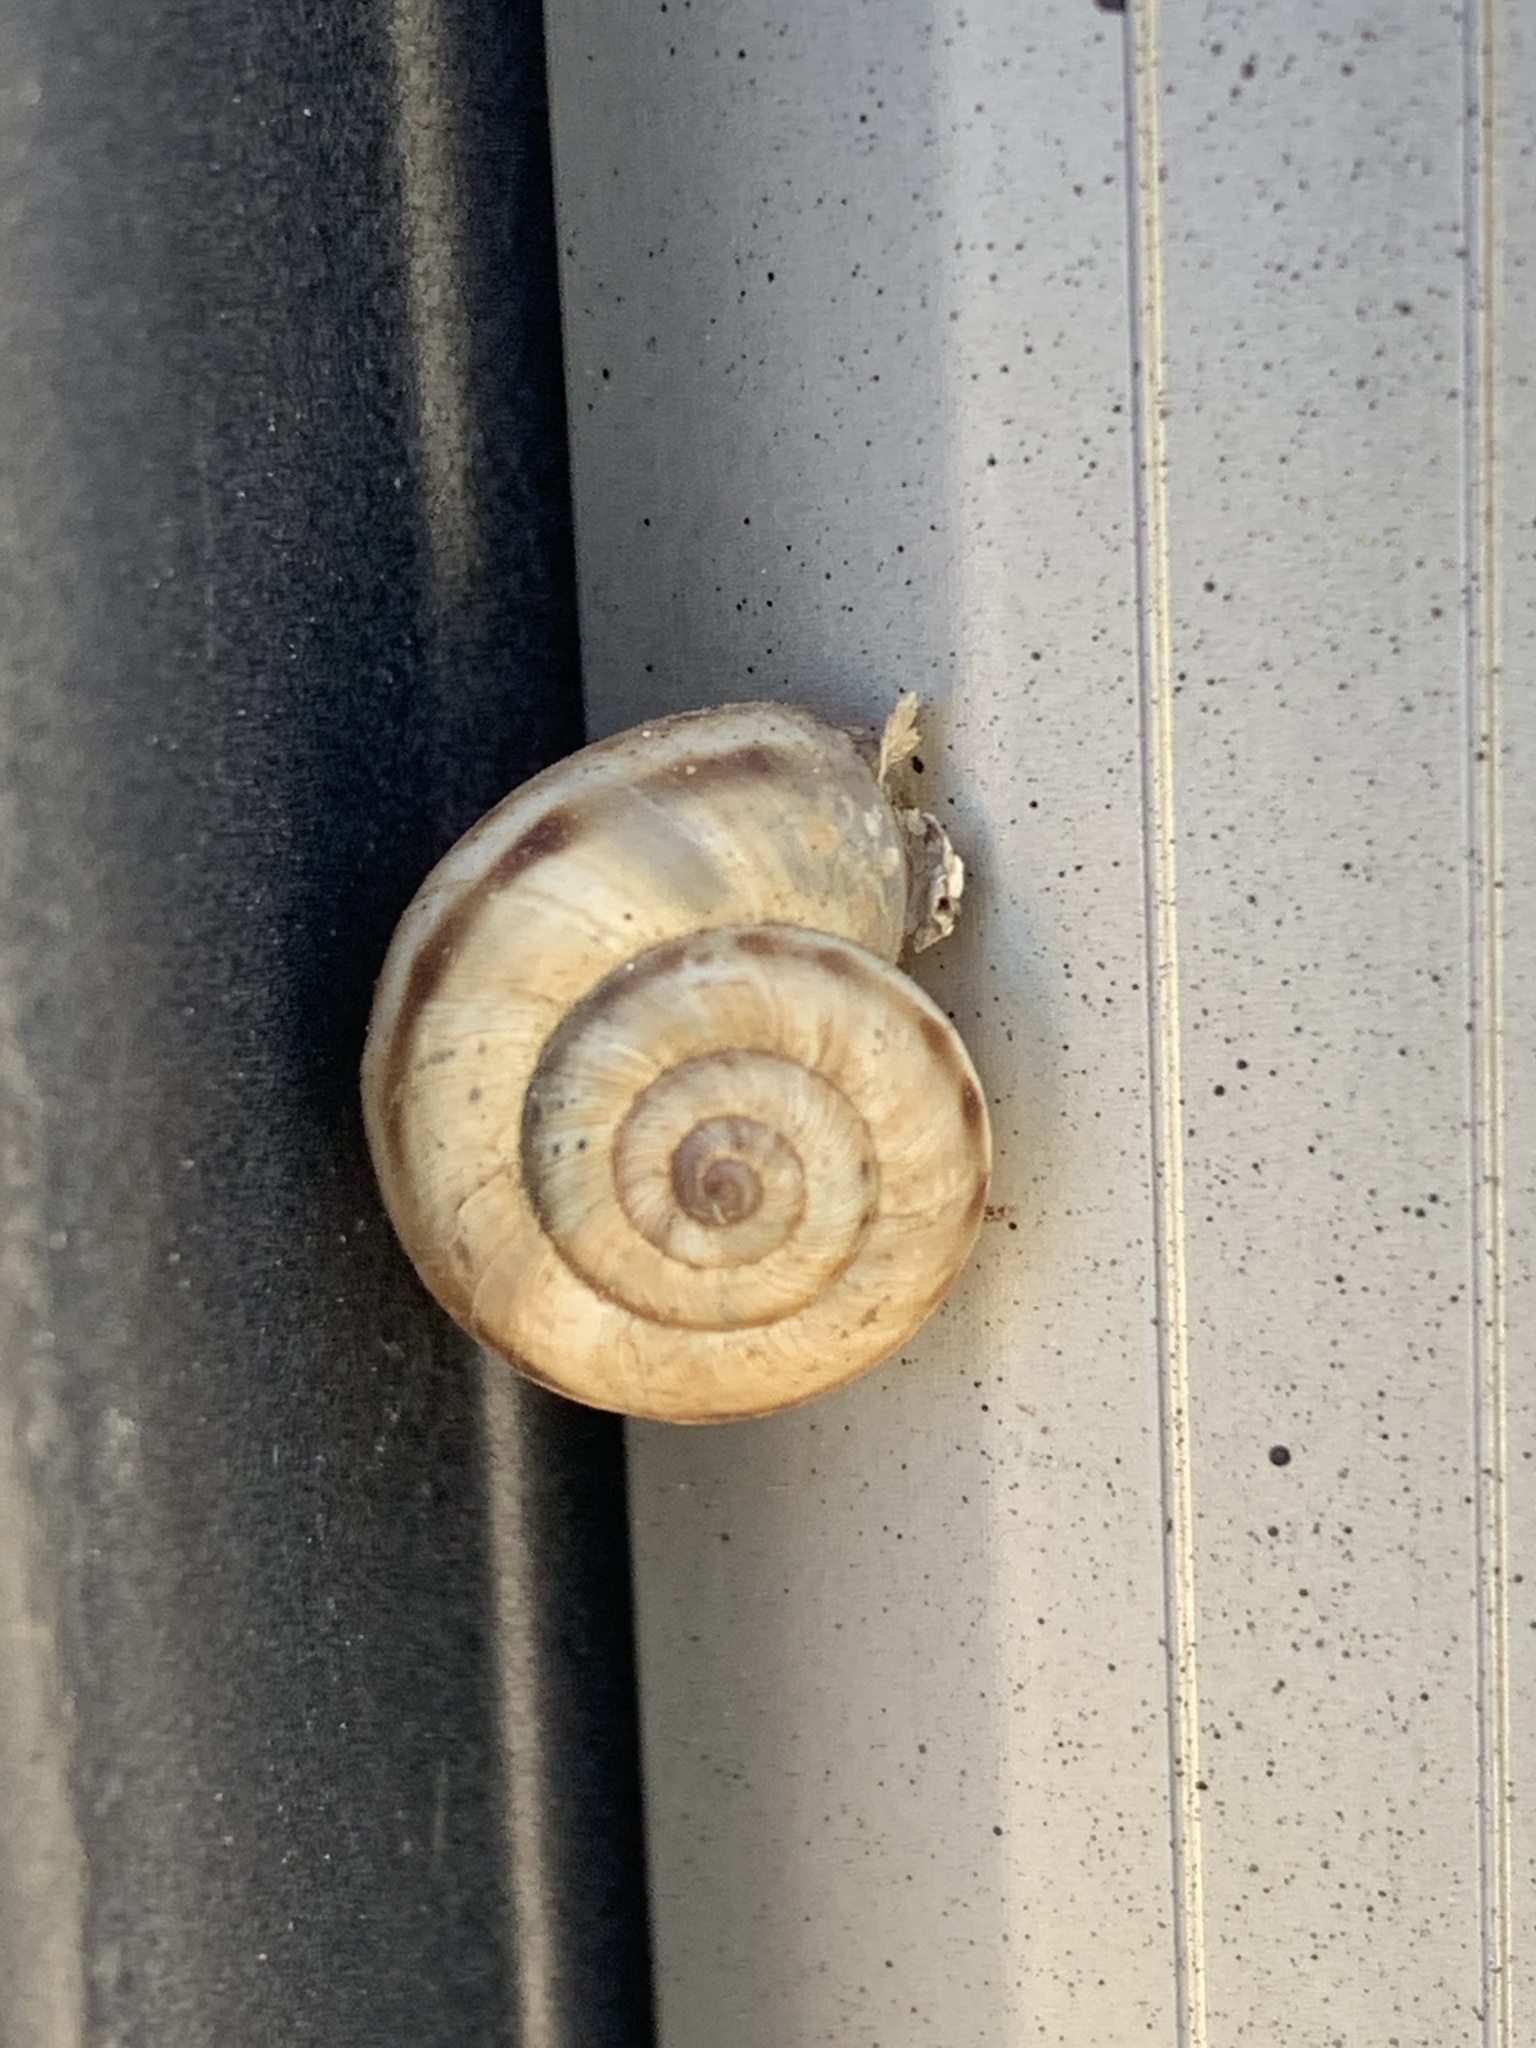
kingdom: Animalia
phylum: Mollusca
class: Gastropoda
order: Stylommatophora
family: Geomitridae
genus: Xerolenta
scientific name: Xerolenta obvia
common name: White heath snail
